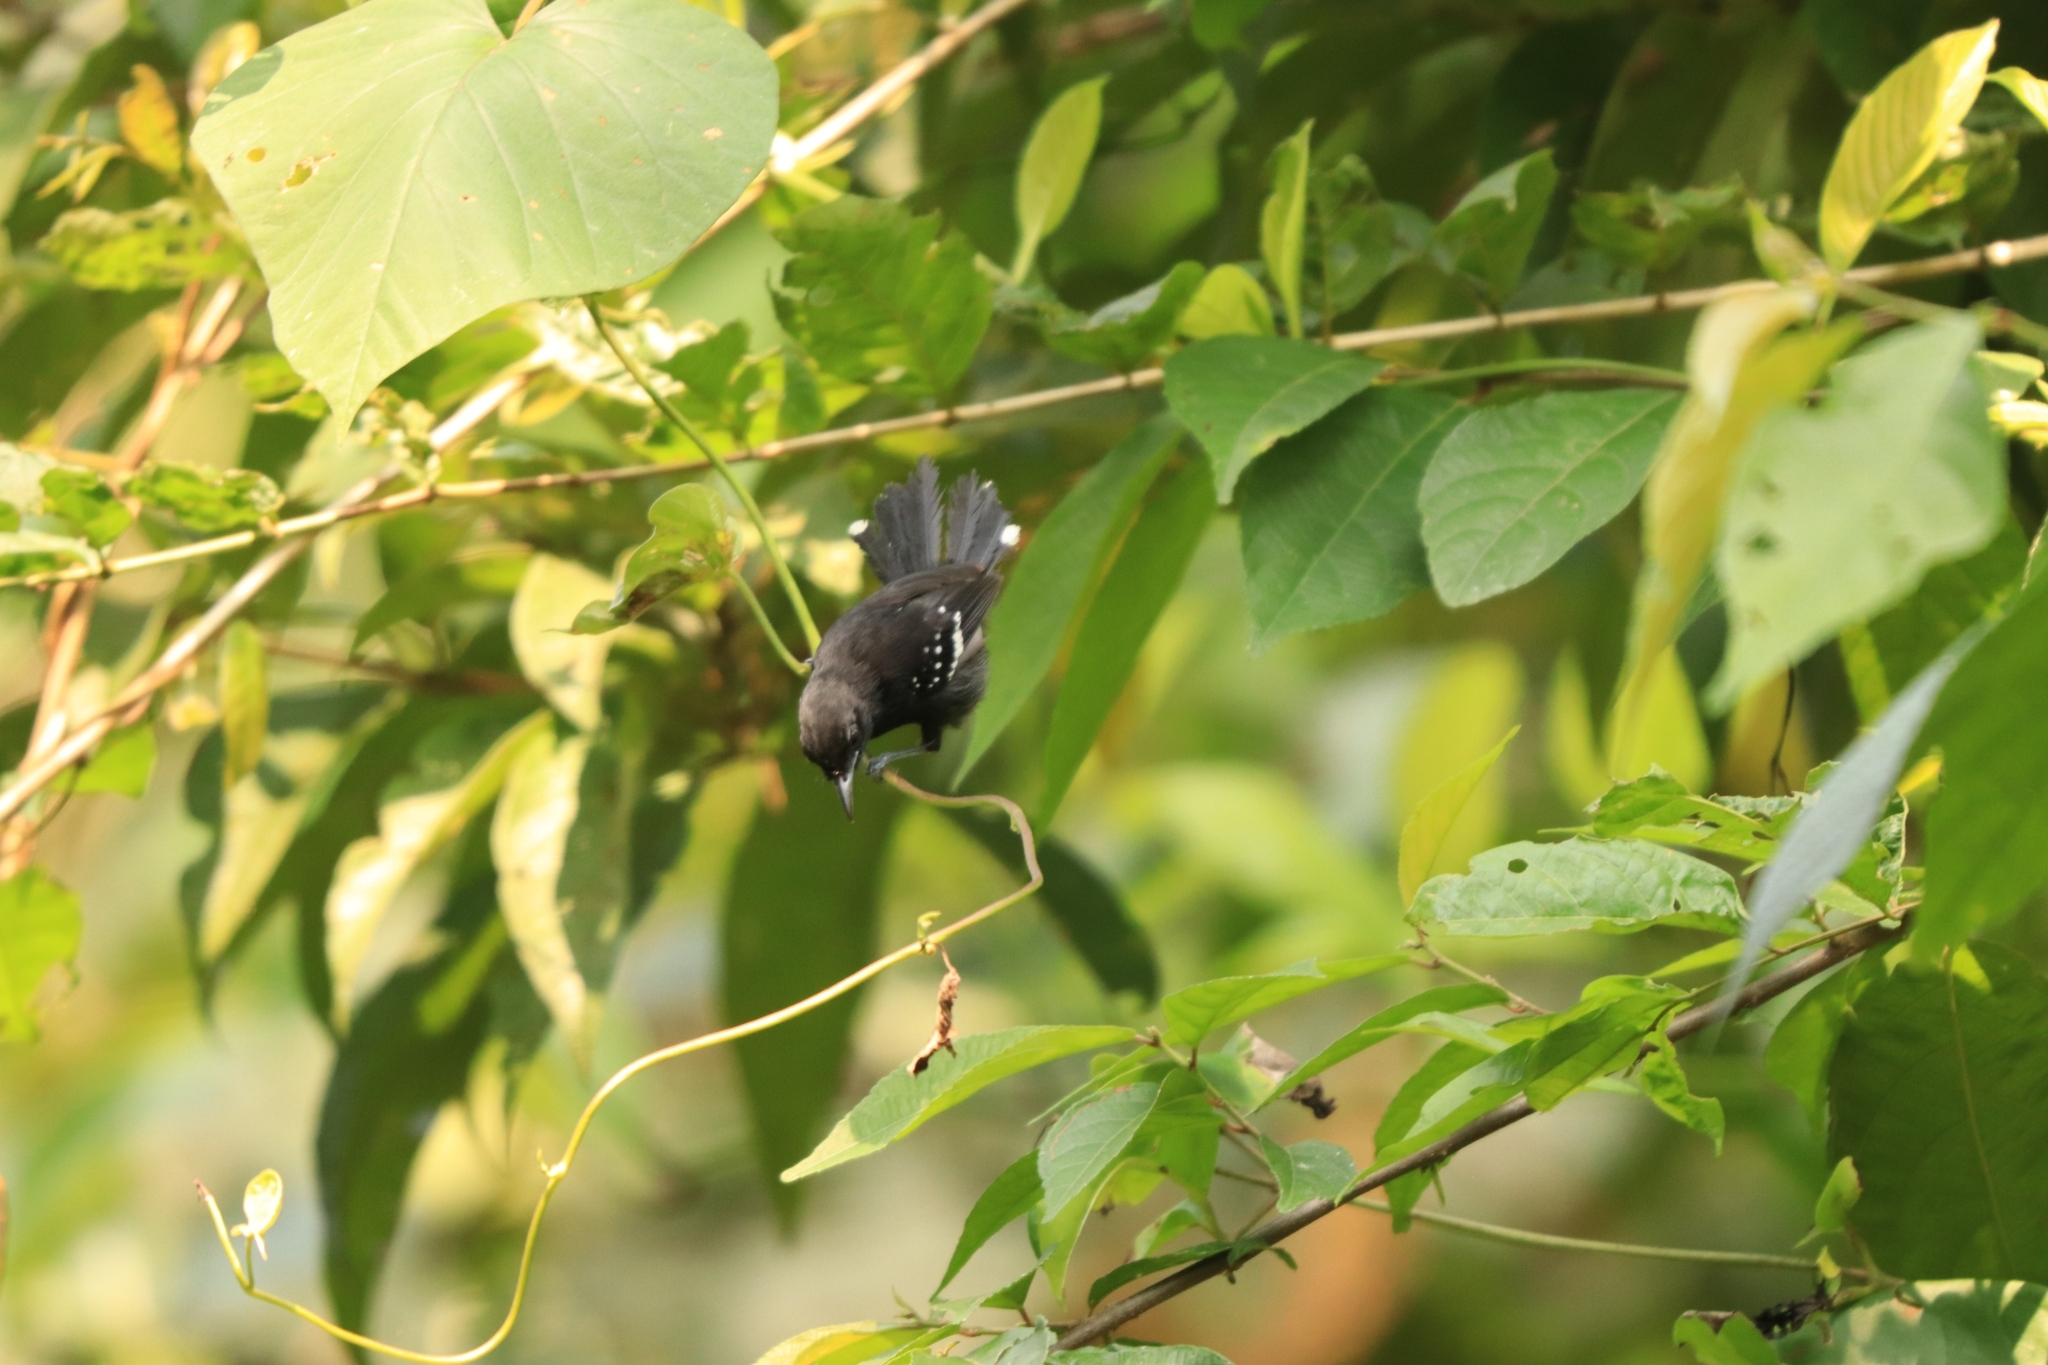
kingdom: Animalia
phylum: Chordata
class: Aves
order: Passeriformes
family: Thamnophilidae
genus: Microrhopias
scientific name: Microrhopias quixensis
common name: Dot-winged antwren
